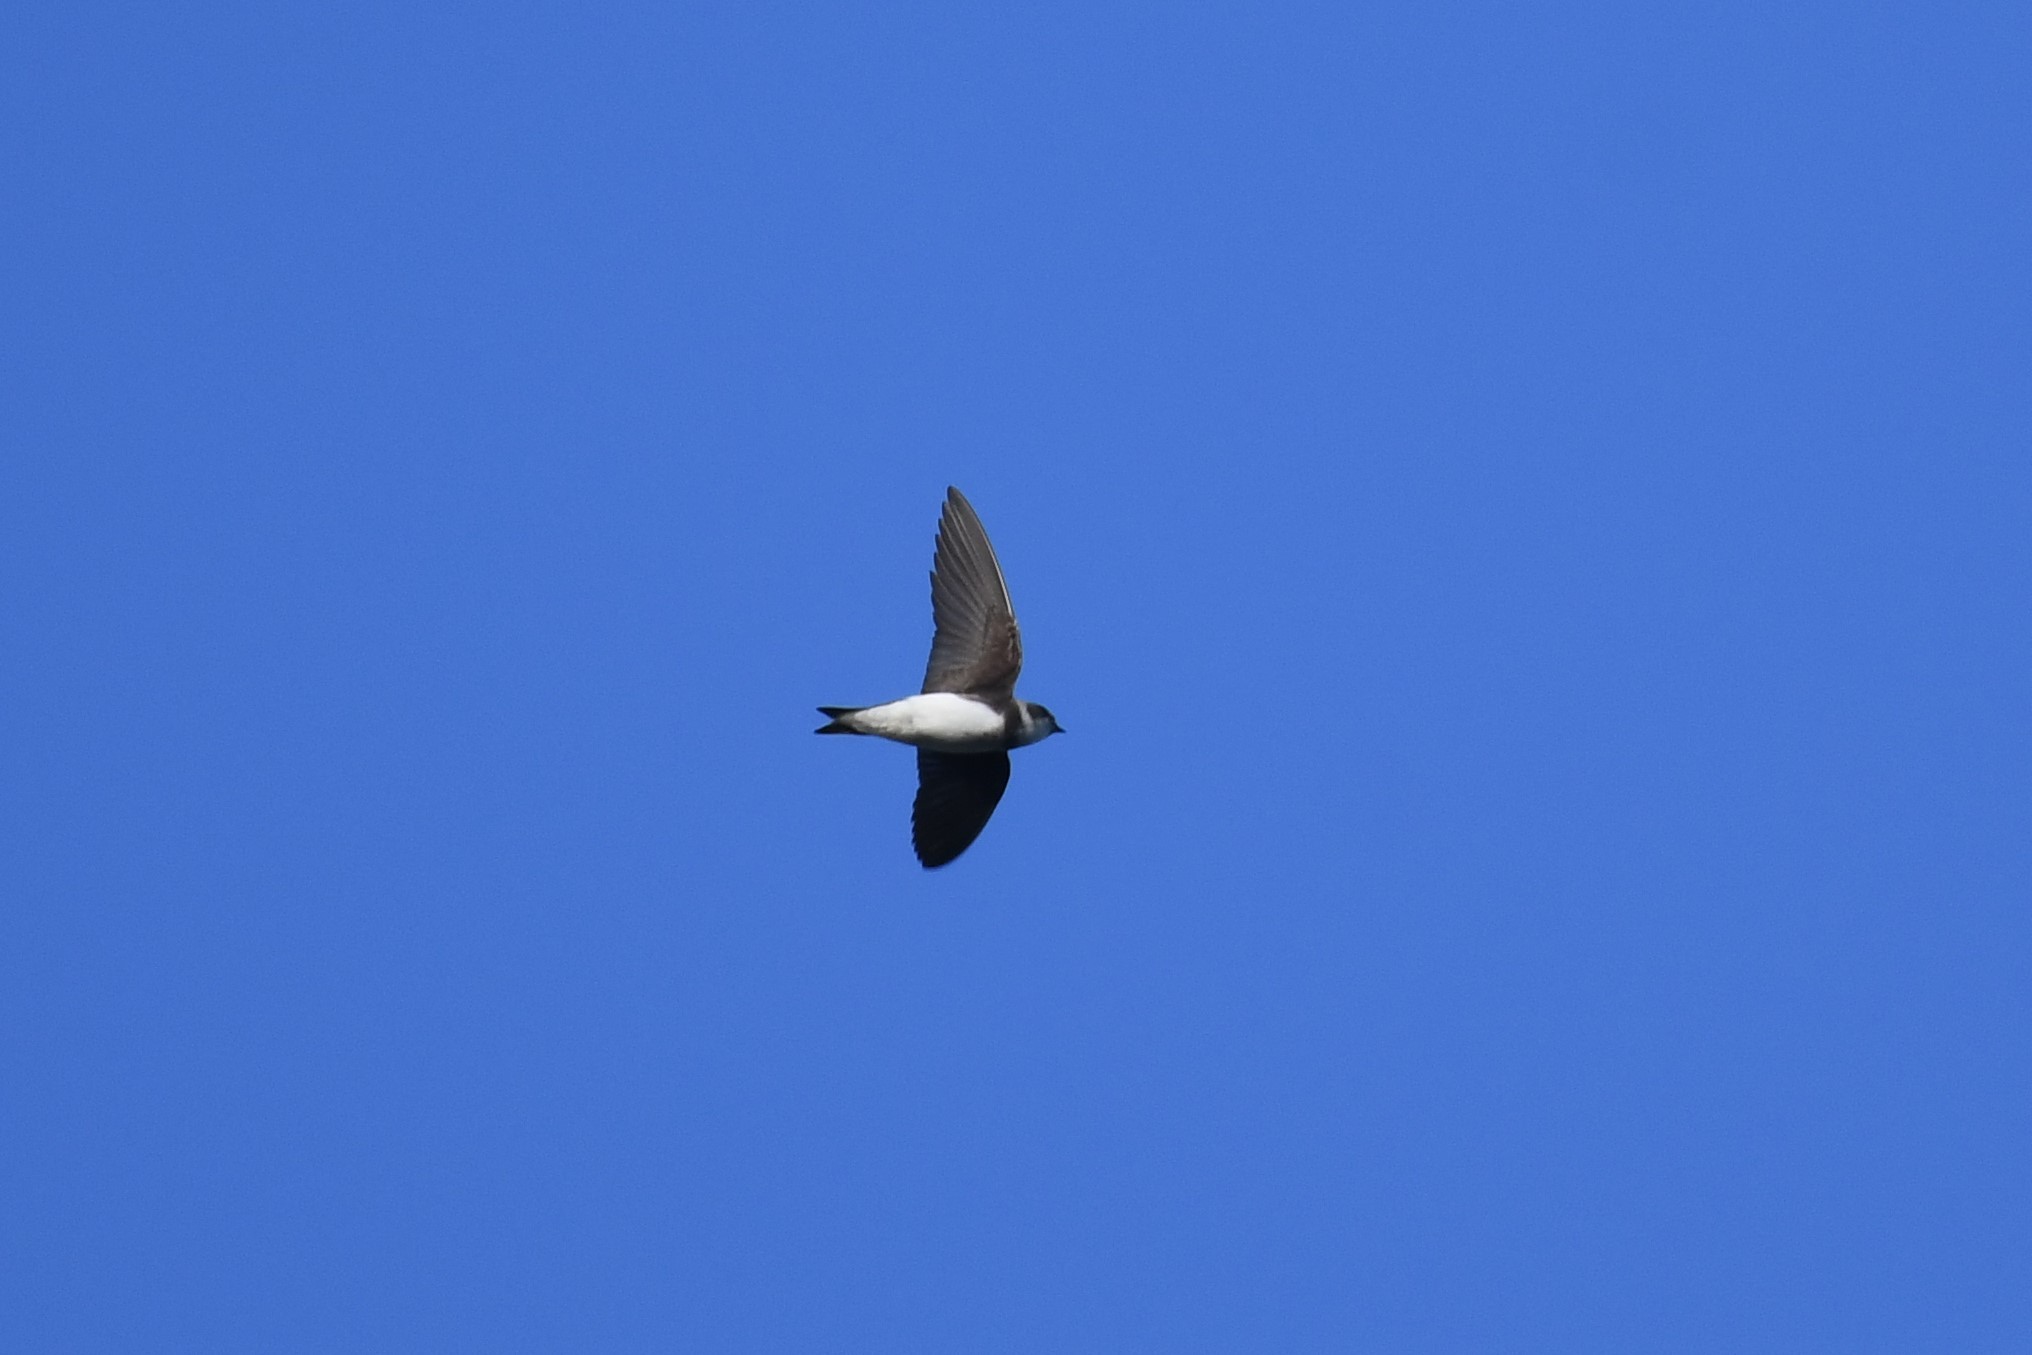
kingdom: Animalia
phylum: Chordata
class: Aves
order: Passeriformes
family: Hirundinidae
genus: Riparia
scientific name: Riparia riparia
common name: Sand martin
